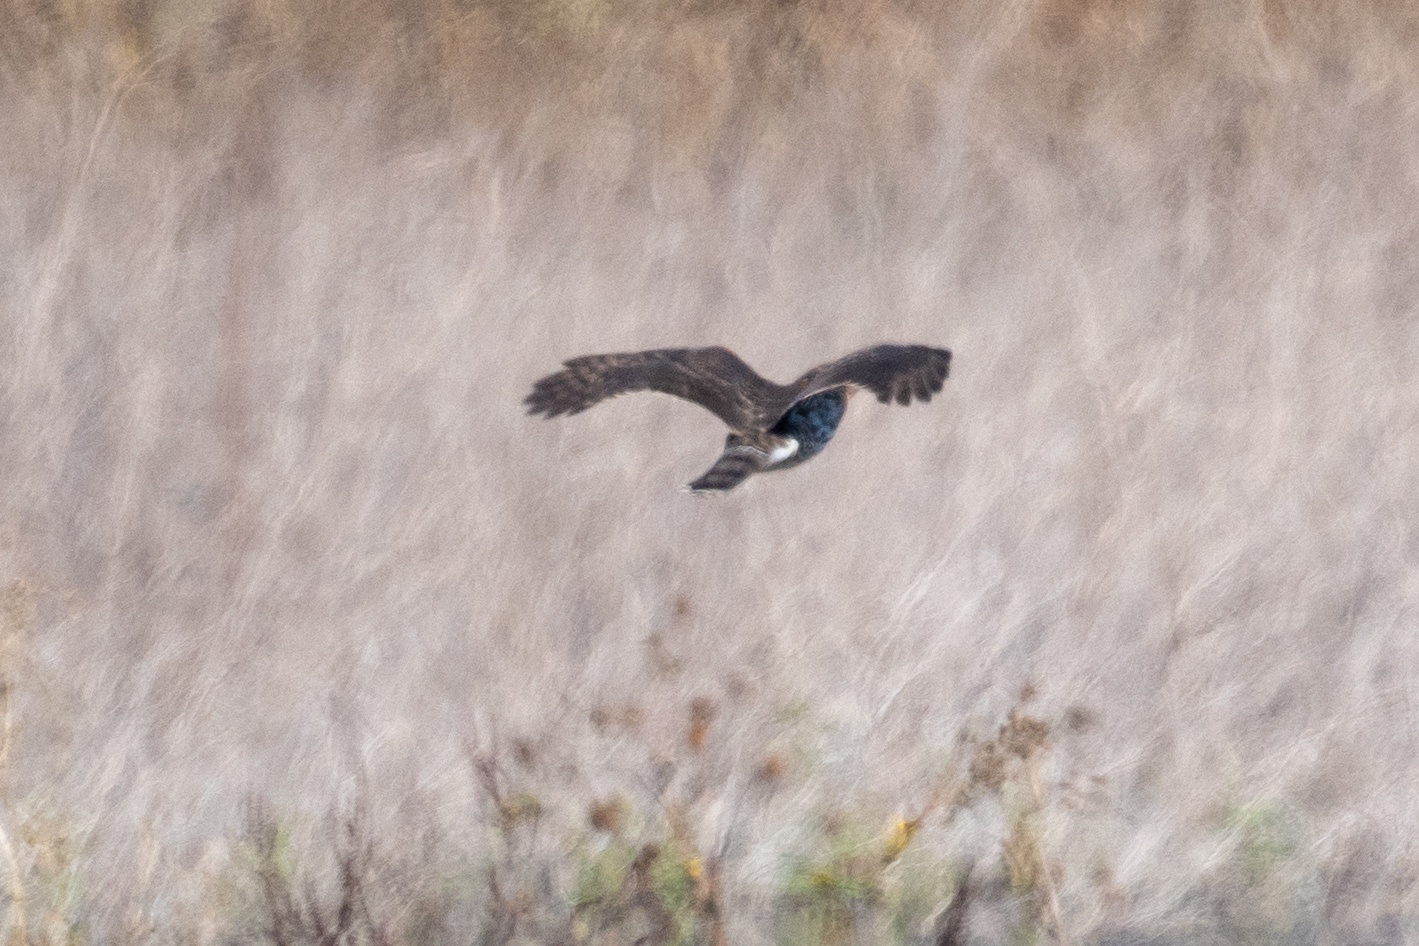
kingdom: Animalia
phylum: Chordata
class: Aves
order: Accipitriformes
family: Accipitridae
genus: Accipiter
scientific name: Accipiter striatus
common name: Sharp-shinned hawk
